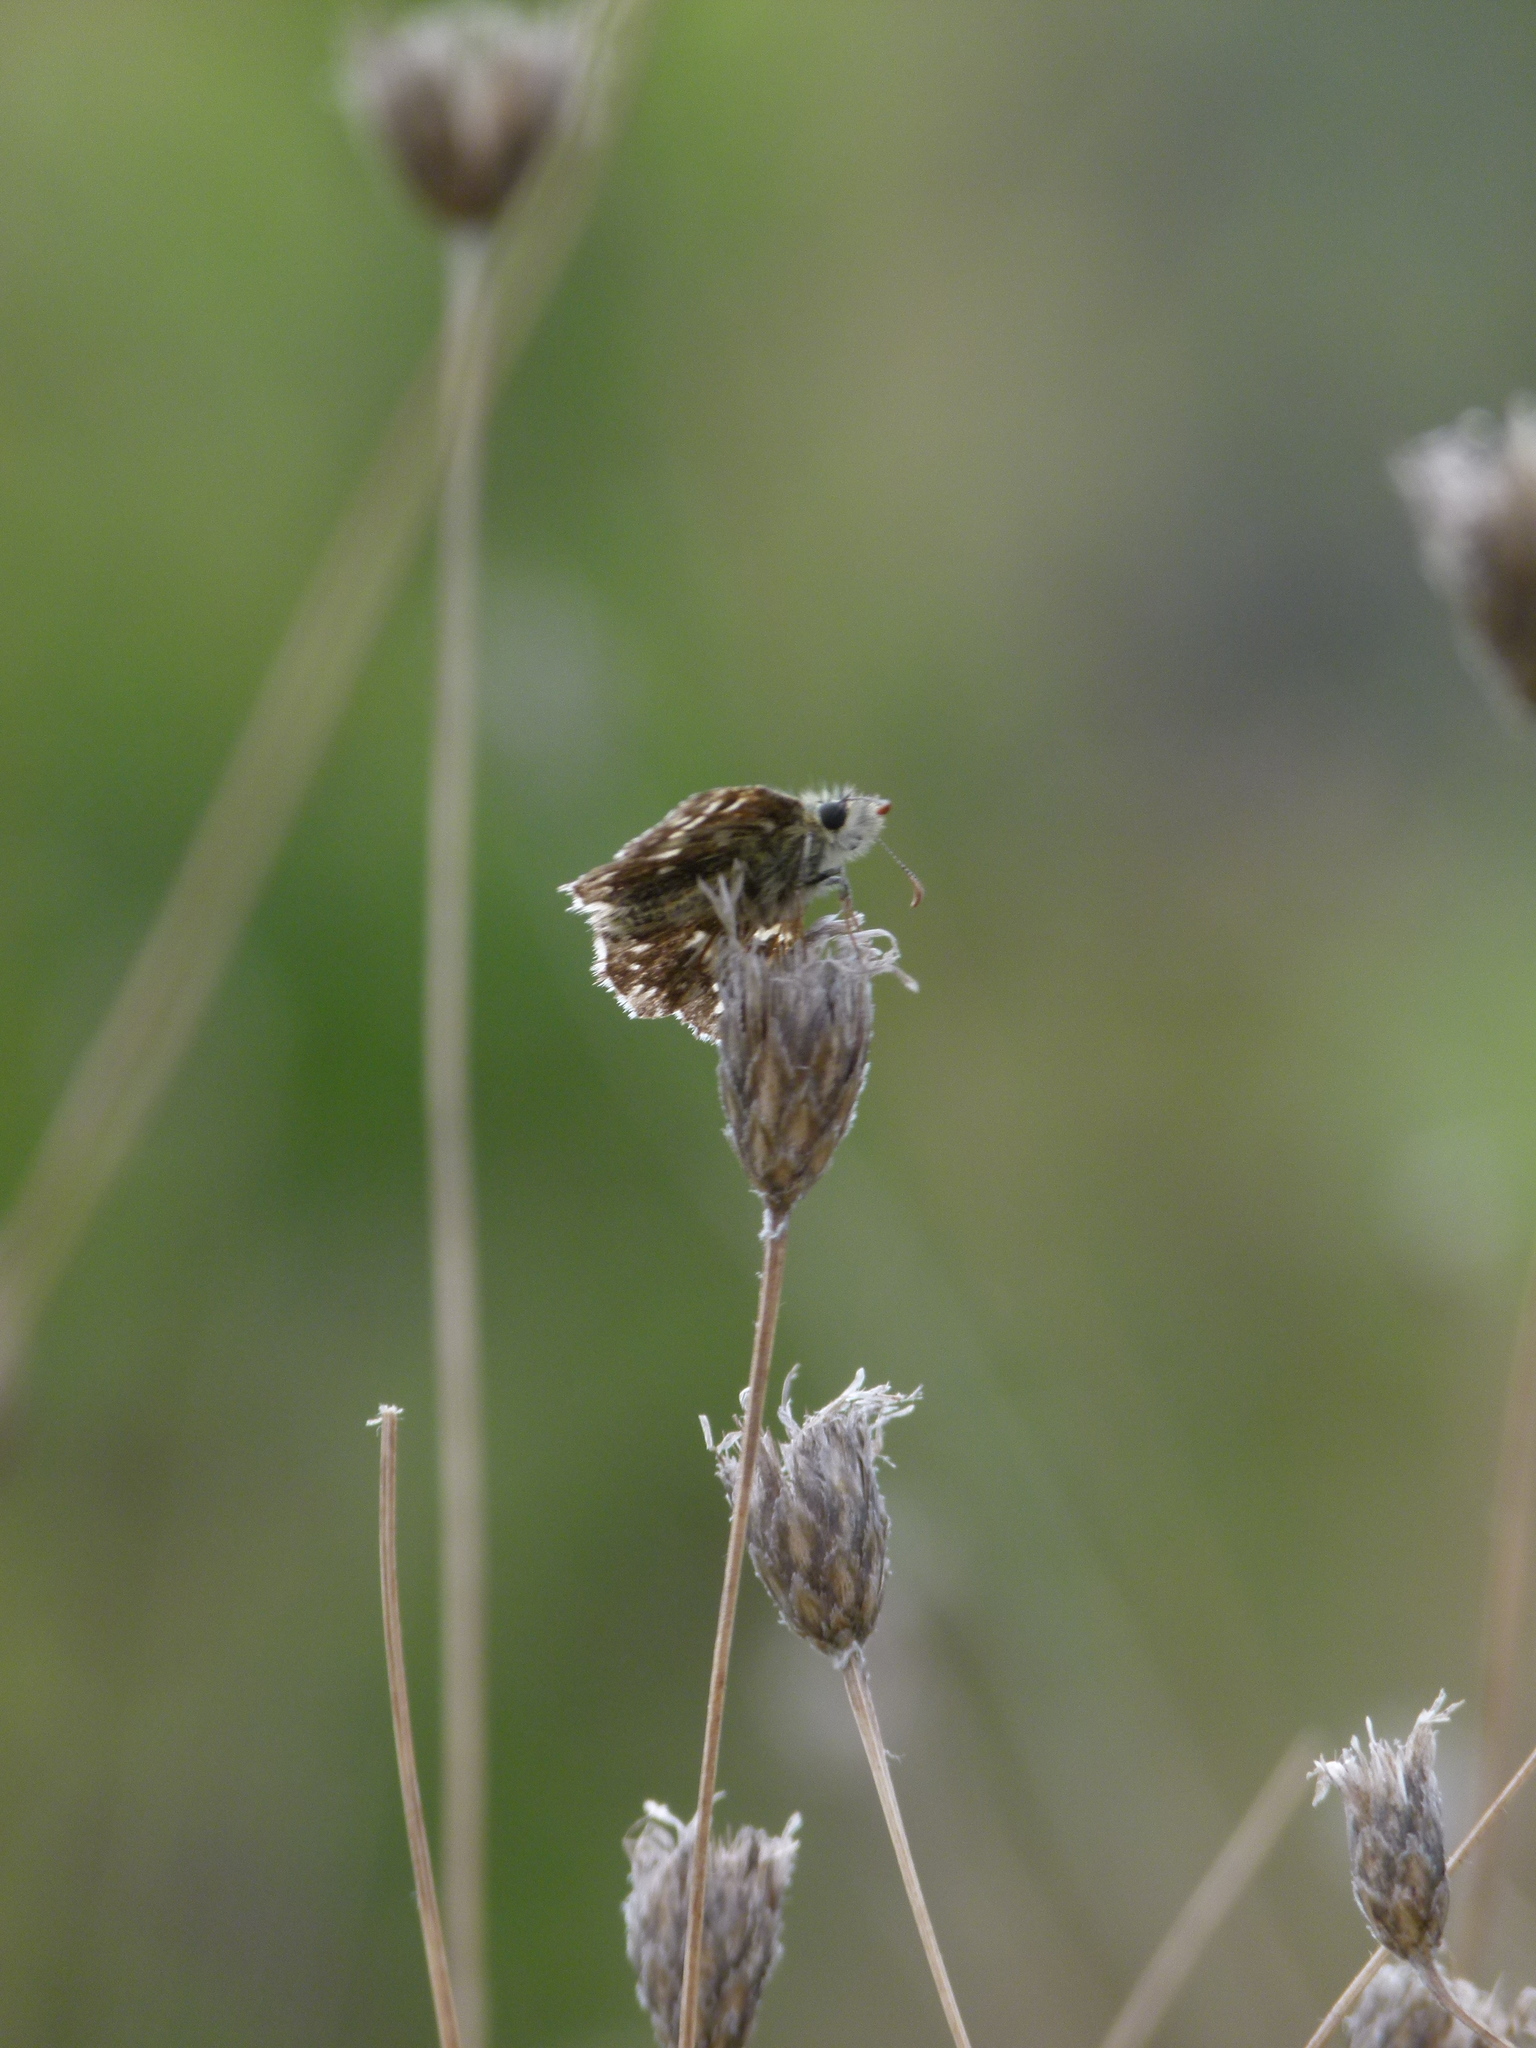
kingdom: Animalia
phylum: Arthropoda
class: Insecta
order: Lepidoptera
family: Hesperiidae
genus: Pyrgus
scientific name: Pyrgus malvoides
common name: Southern grizzled skipper
